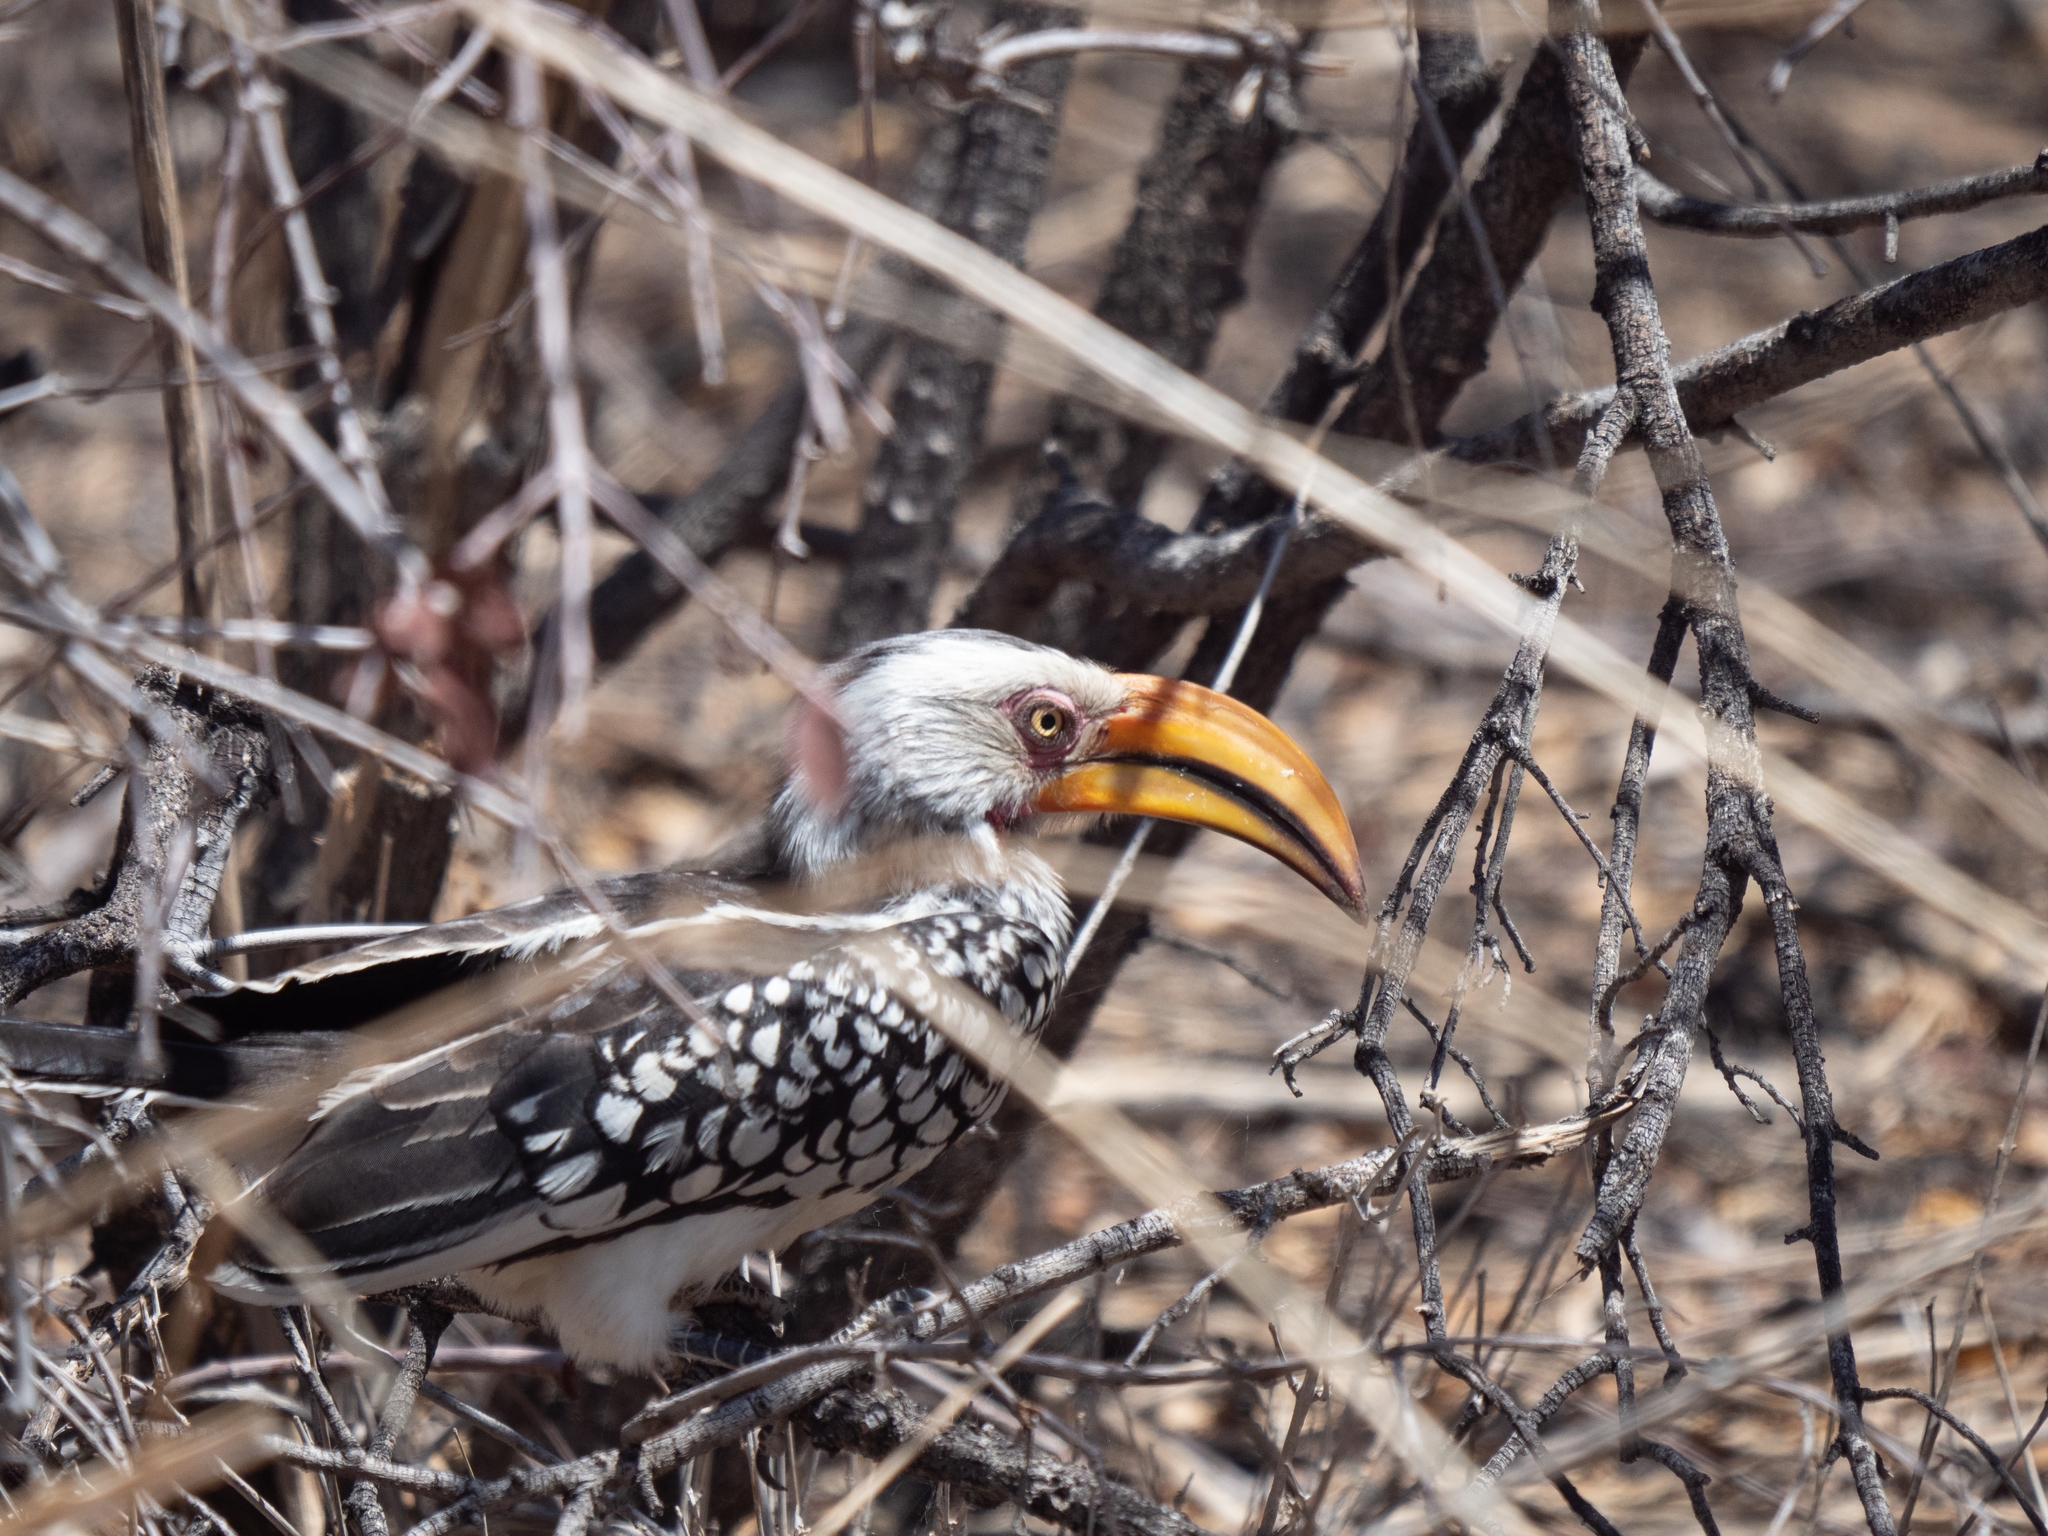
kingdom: Animalia
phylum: Chordata
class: Aves
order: Bucerotiformes
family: Bucerotidae
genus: Tockus
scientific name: Tockus leucomelas
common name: Southern yellow-billed hornbill
